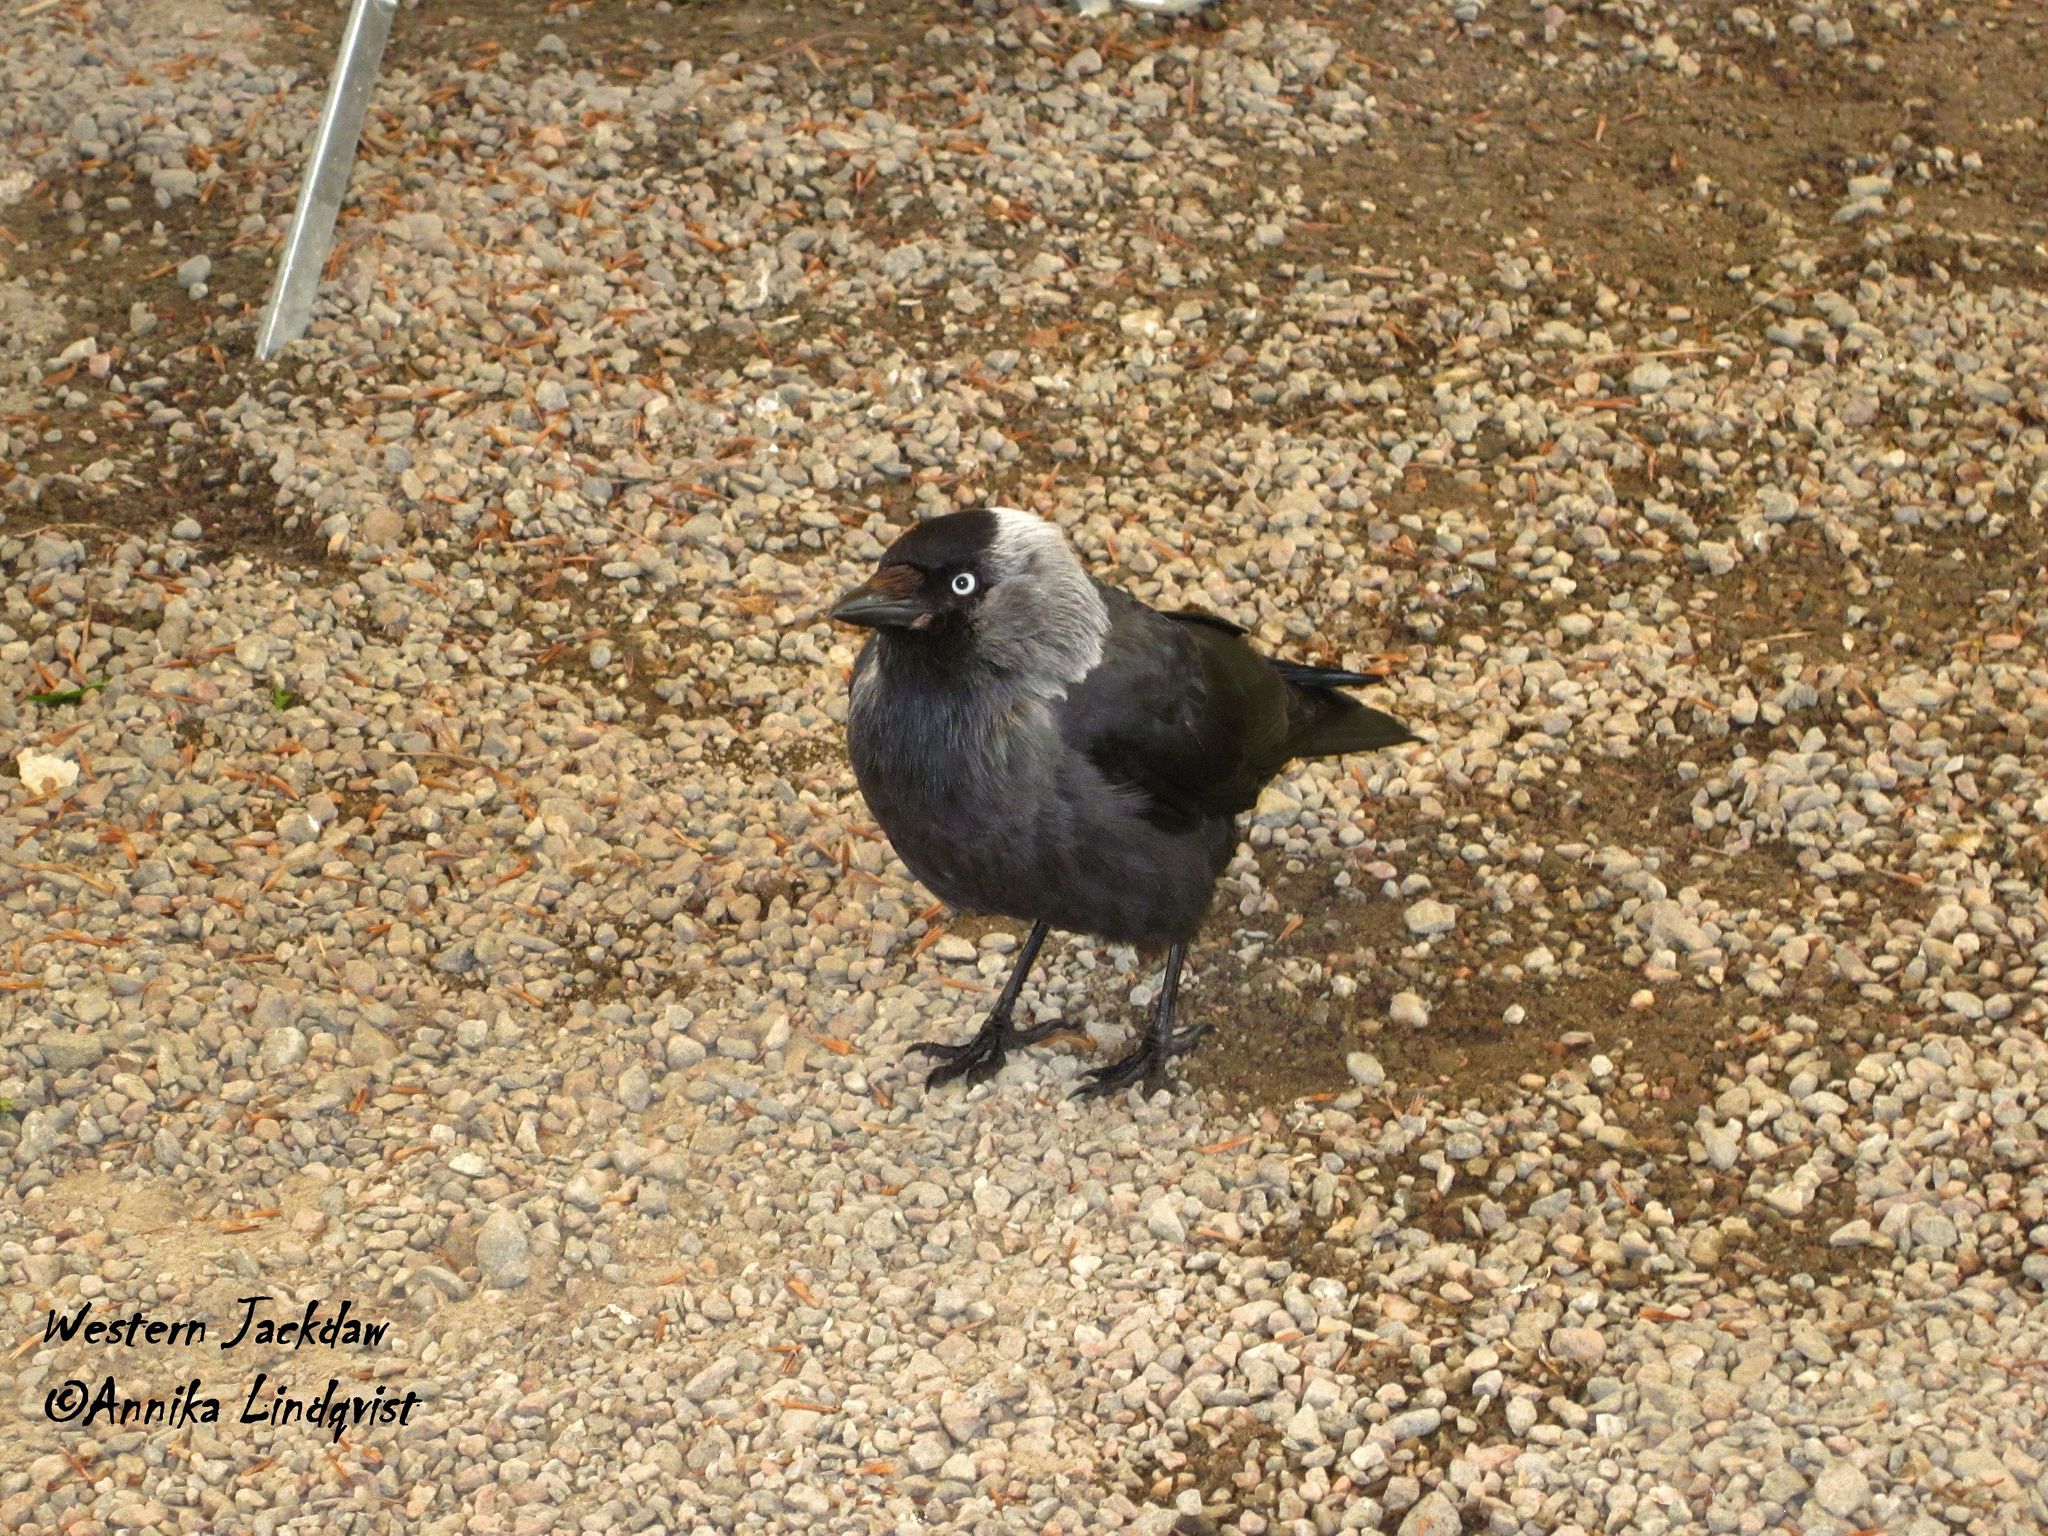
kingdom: Animalia
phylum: Chordata
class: Aves
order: Passeriformes
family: Corvidae
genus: Coloeus
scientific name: Coloeus monedula
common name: Western jackdaw
